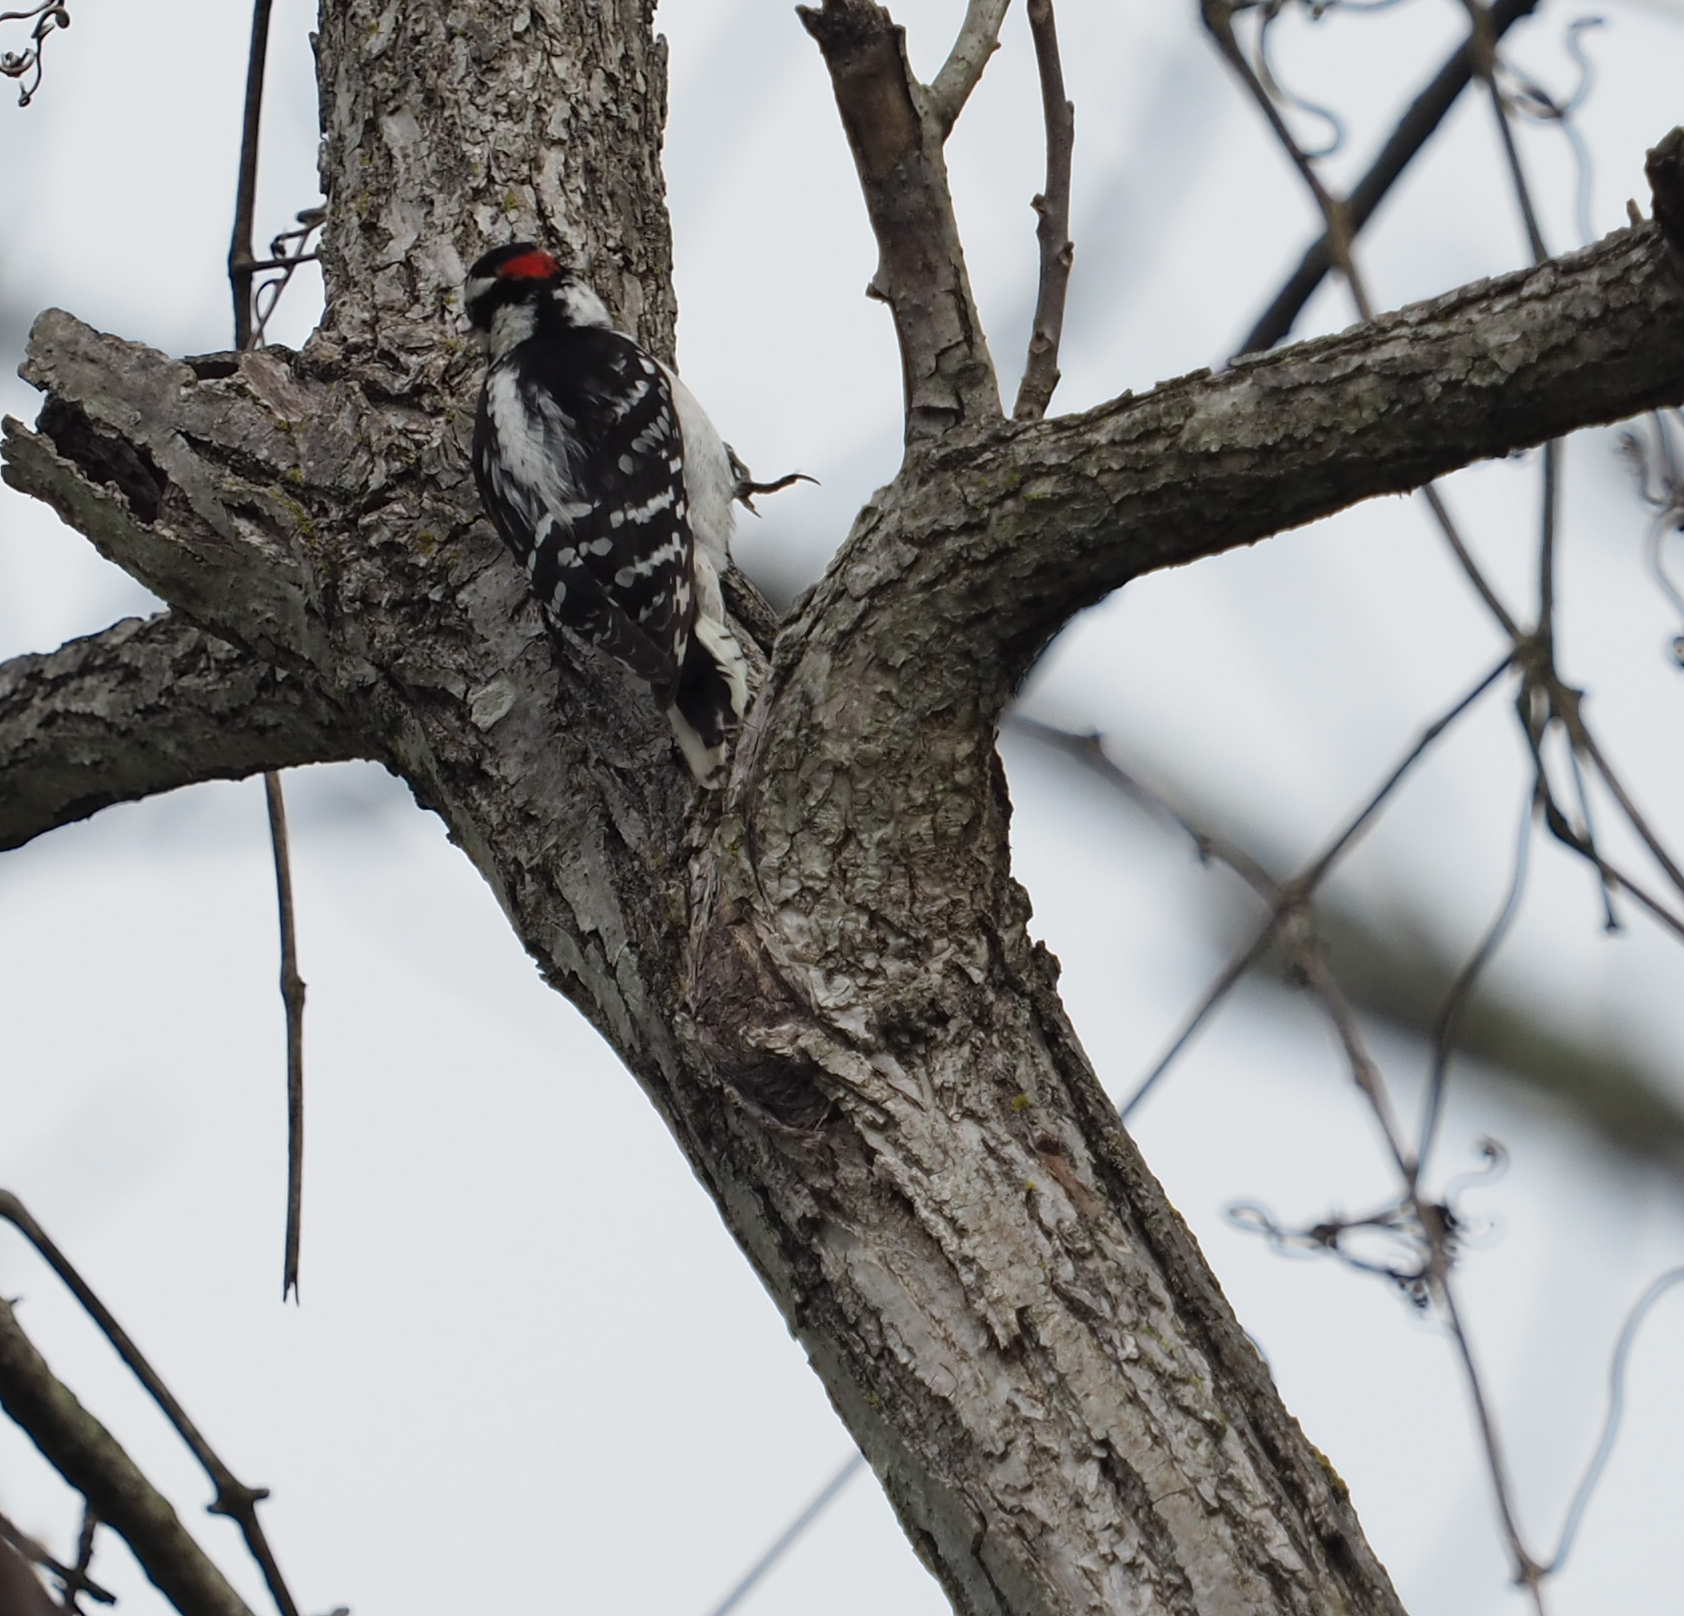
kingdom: Animalia
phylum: Chordata
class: Aves
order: Piciformes
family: Picidae
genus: Dryobates
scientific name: Dryobates pubescens
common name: Downy woodpecker
